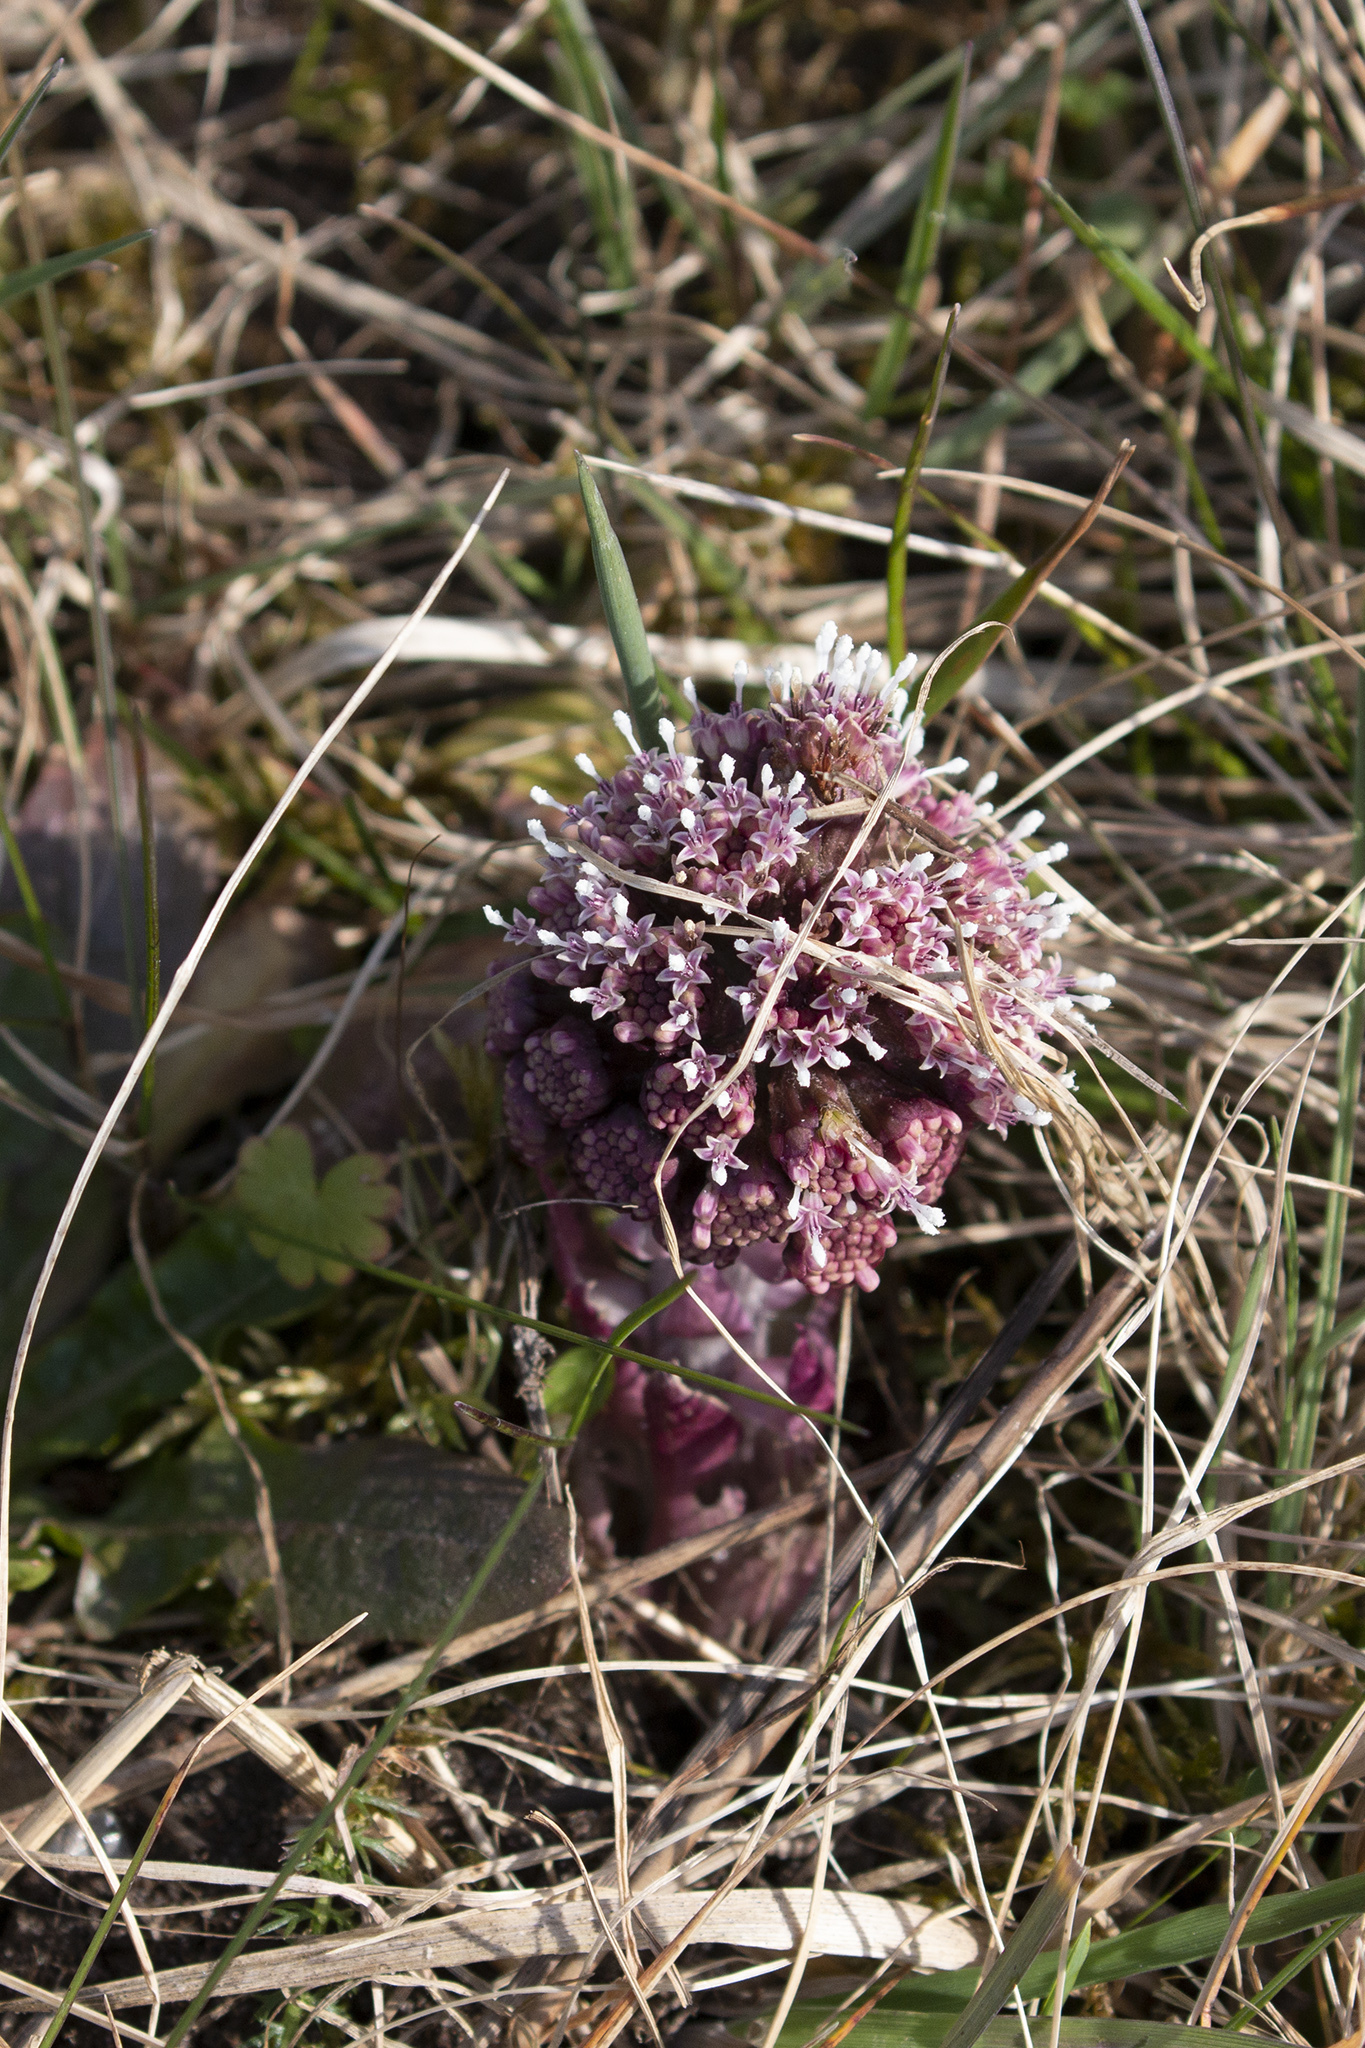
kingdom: Plantae
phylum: Tracheophyta
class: Magnoliopsida
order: Asterales
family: Asteraceae
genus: Petasites
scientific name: Petasites hybridus
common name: Butterbur
